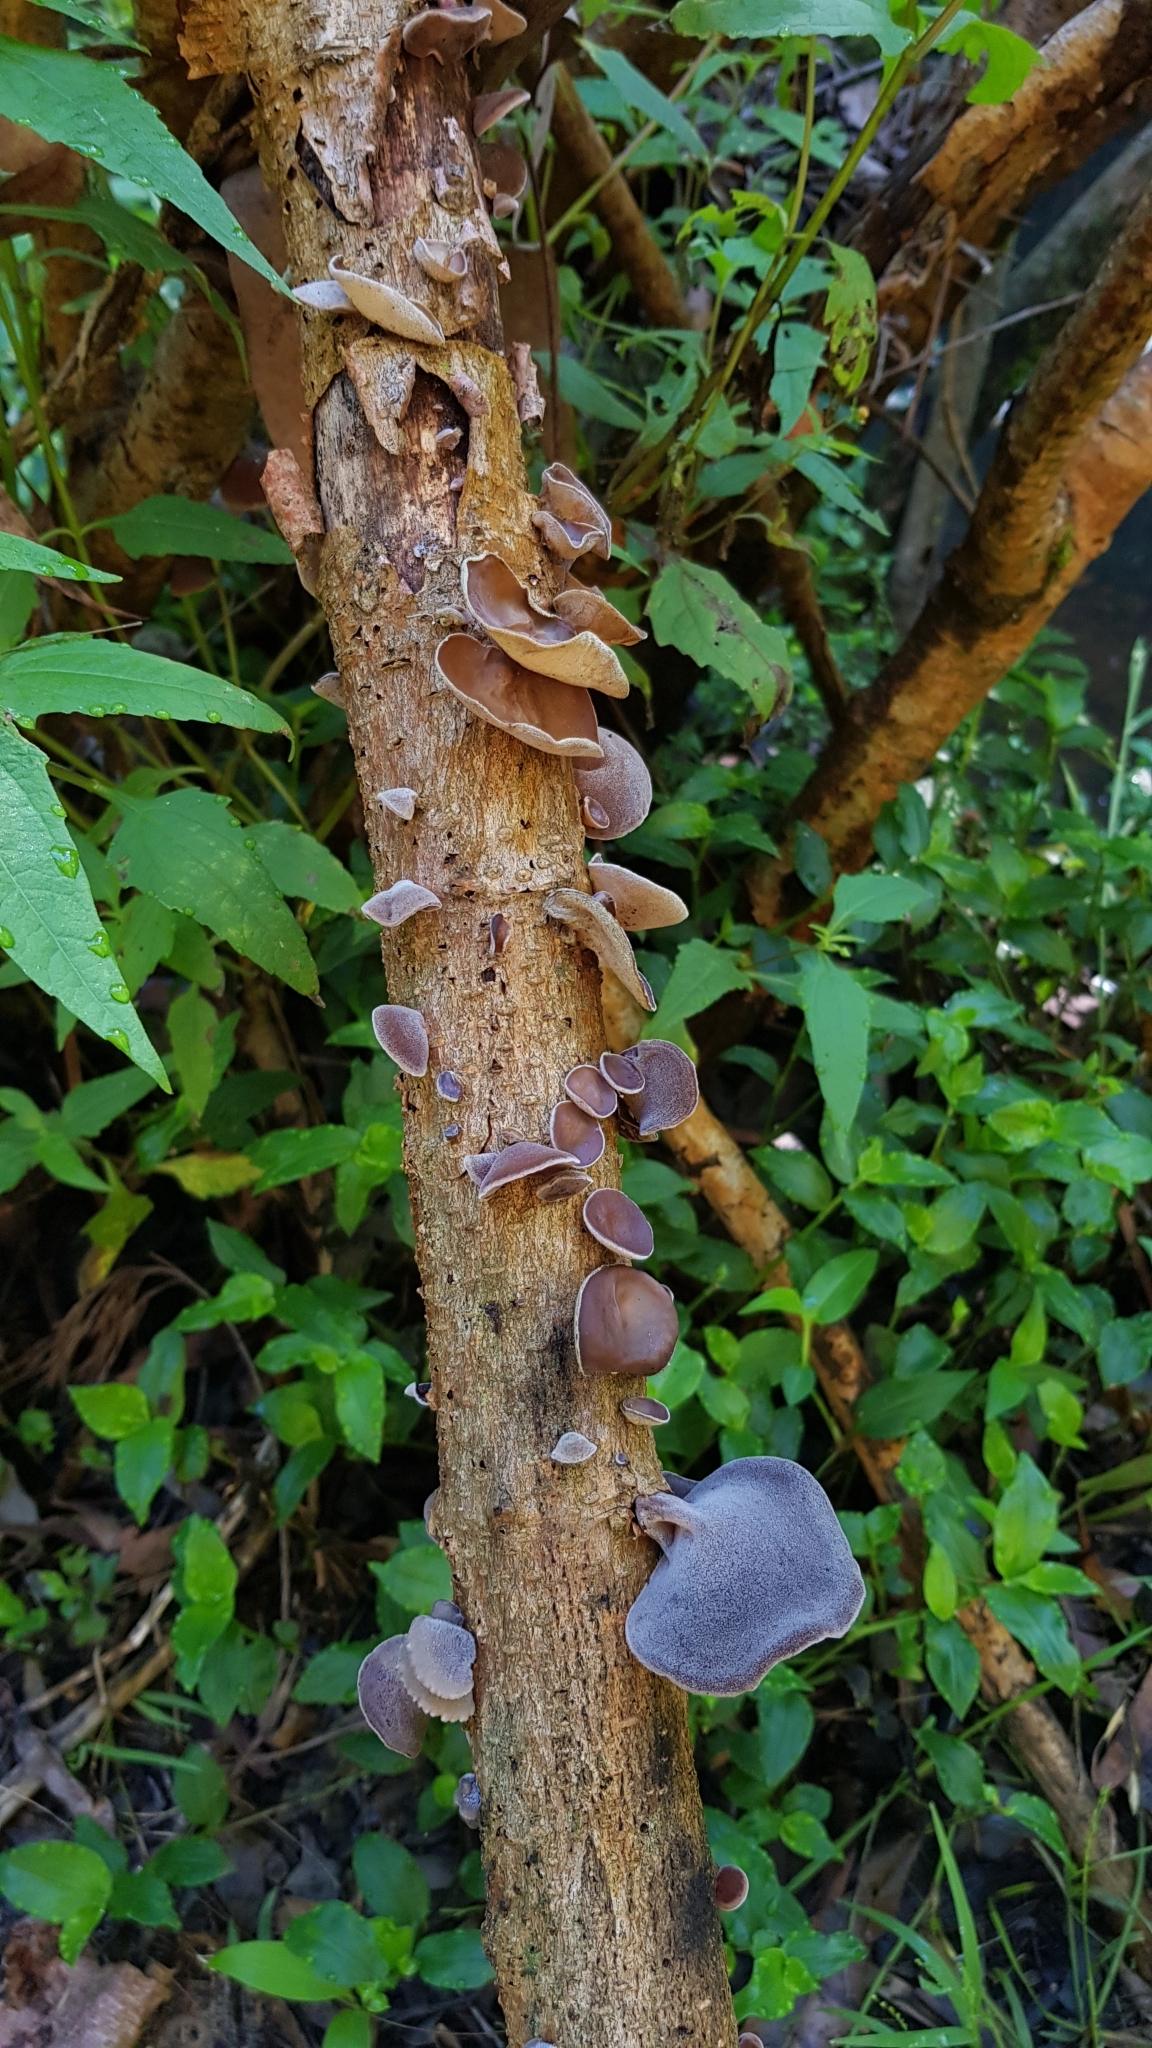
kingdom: Fungi
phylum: Basidiomycota
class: Agaricomycetes
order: Auriculariales
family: Auriculariaceae
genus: Auricularia
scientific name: Auricularia cornea
